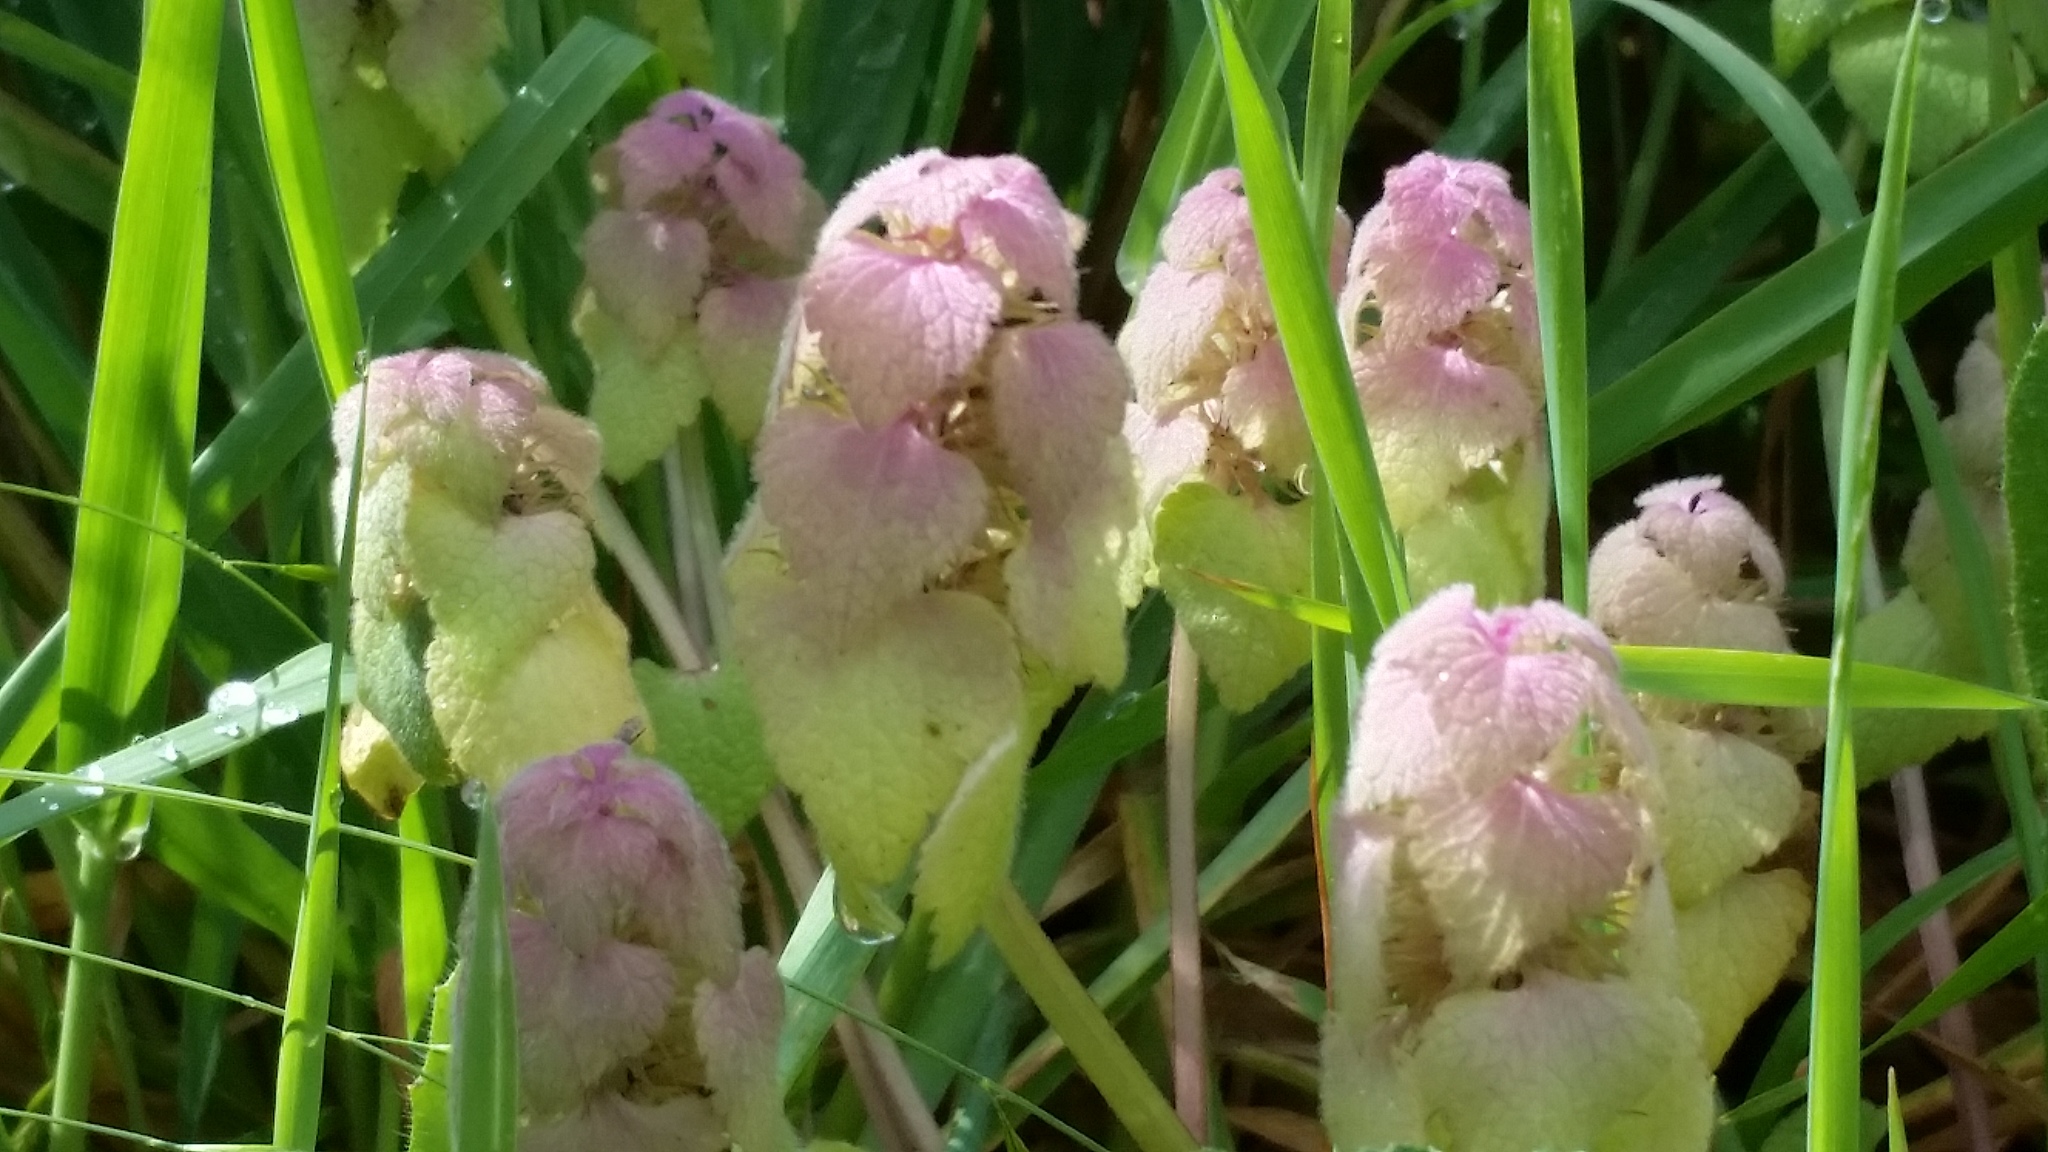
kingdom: Plantae
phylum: Tracheophyta
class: Magnoliopsida
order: Lamiales
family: Lamiaceae
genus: Lamium
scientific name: Lamium purpureum
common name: Red dead-nettle
